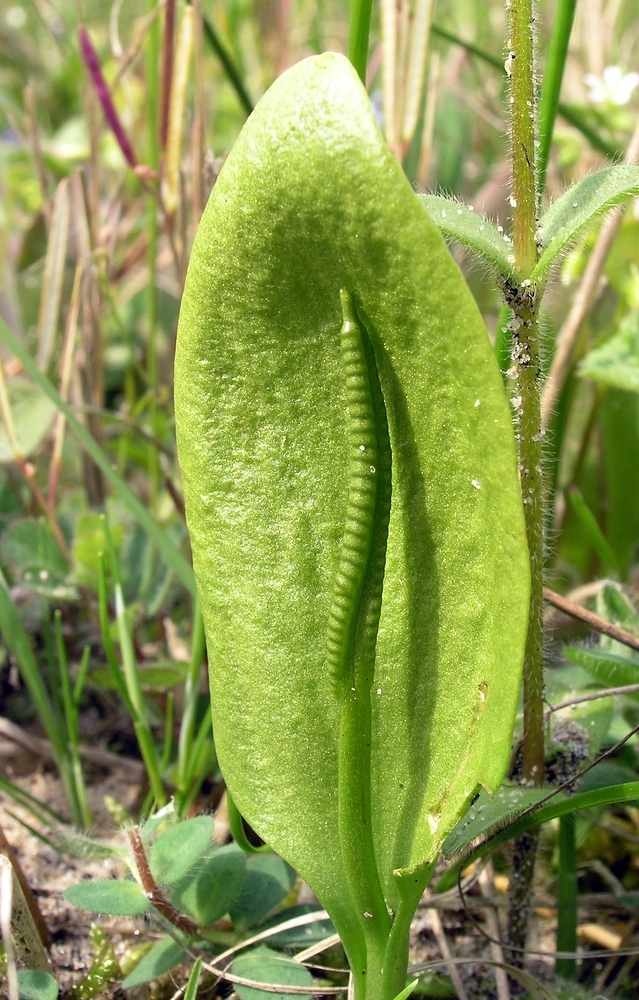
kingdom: Plantae
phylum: Tracheophyta
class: Polypodiopsida
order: Ophioglossales
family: Ophioglossaceae
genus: Ophioglossum
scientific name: Ophioglossum vulgatum
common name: Adder's-tongue
